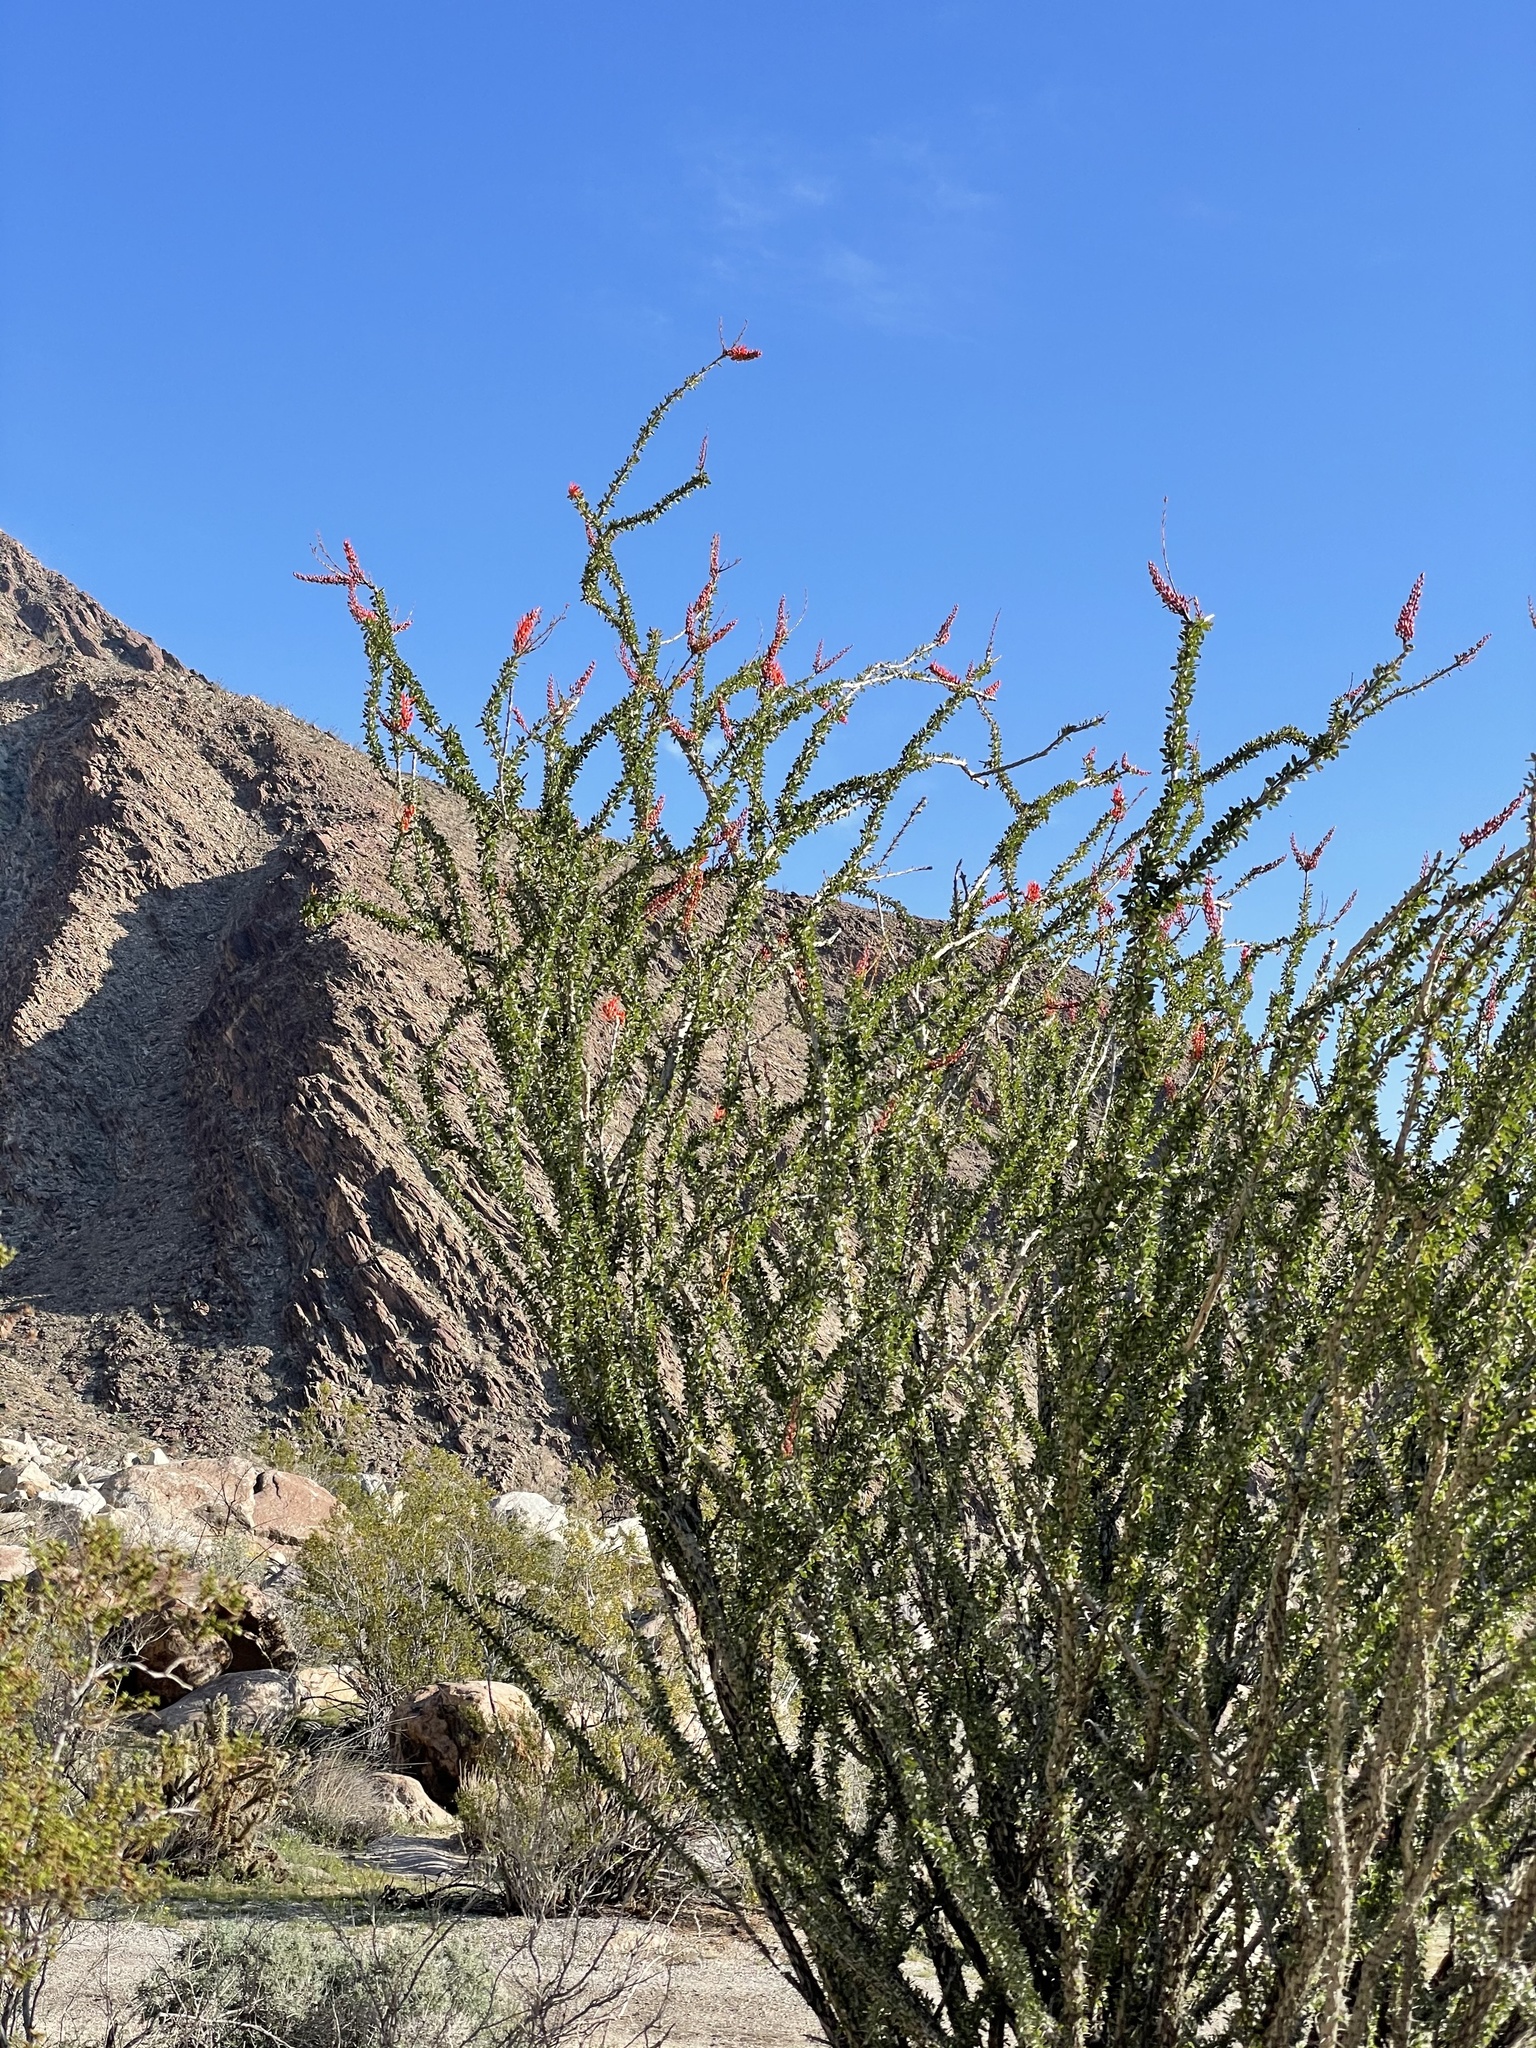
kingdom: Plantae
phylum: Tracheophyta
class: Magnoliopsida
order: Ericales
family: Fouquieriaceae
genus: Fouquieria
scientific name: Fouquieria splendens
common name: Vine-cactus
